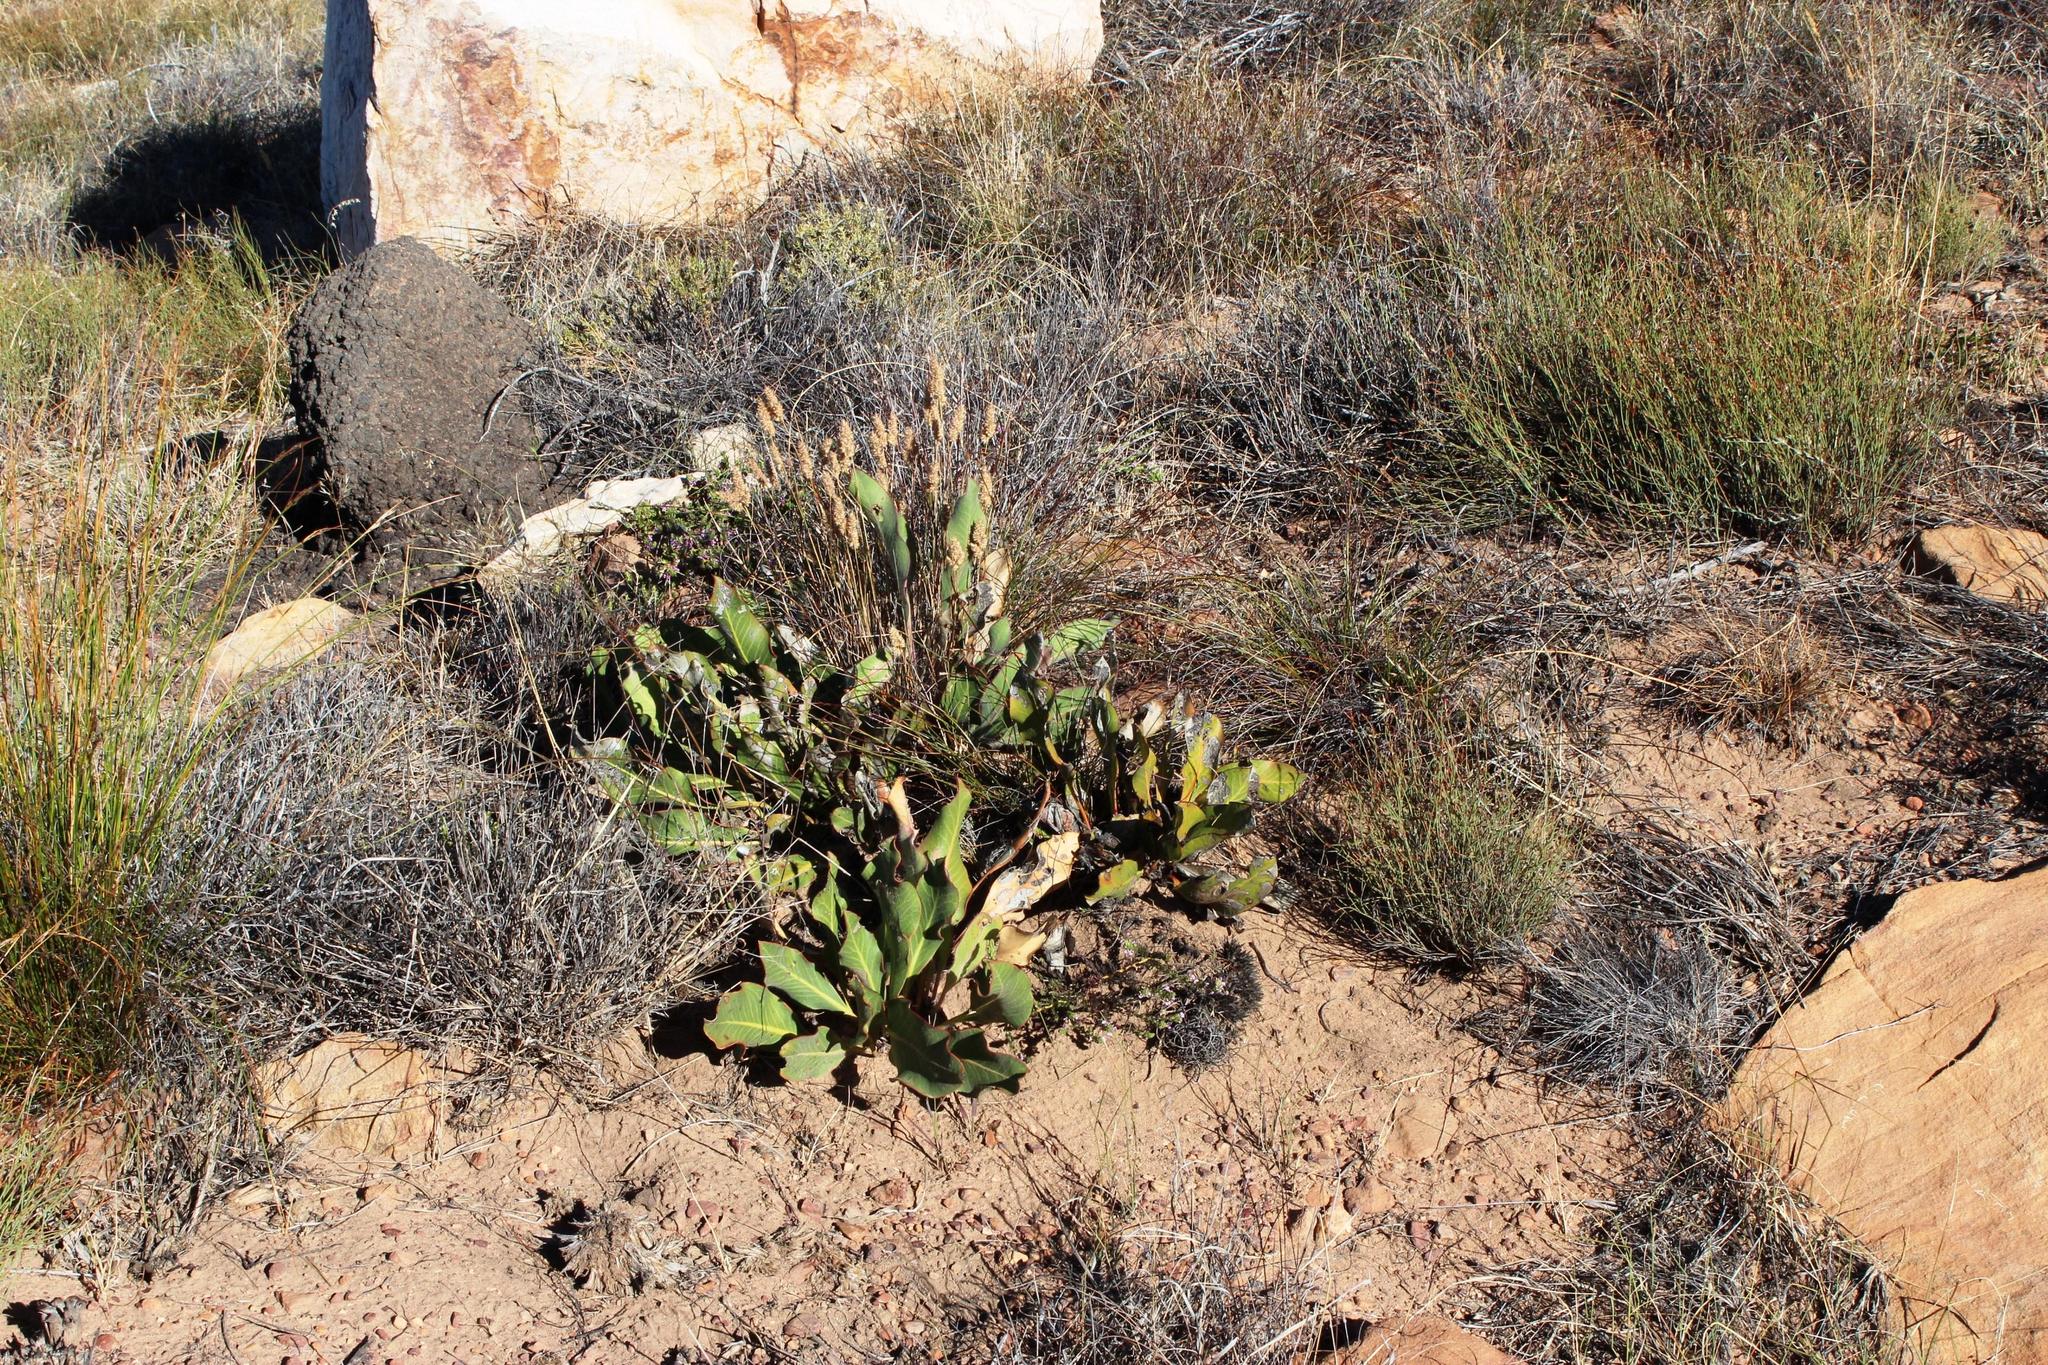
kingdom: Plantae
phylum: Tracheophyta
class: Magnoliopsida
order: Proteales
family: Proteaceae
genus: Protea
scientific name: Protea scolopendriifolia
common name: Harts-tongue-fern sugarbush
